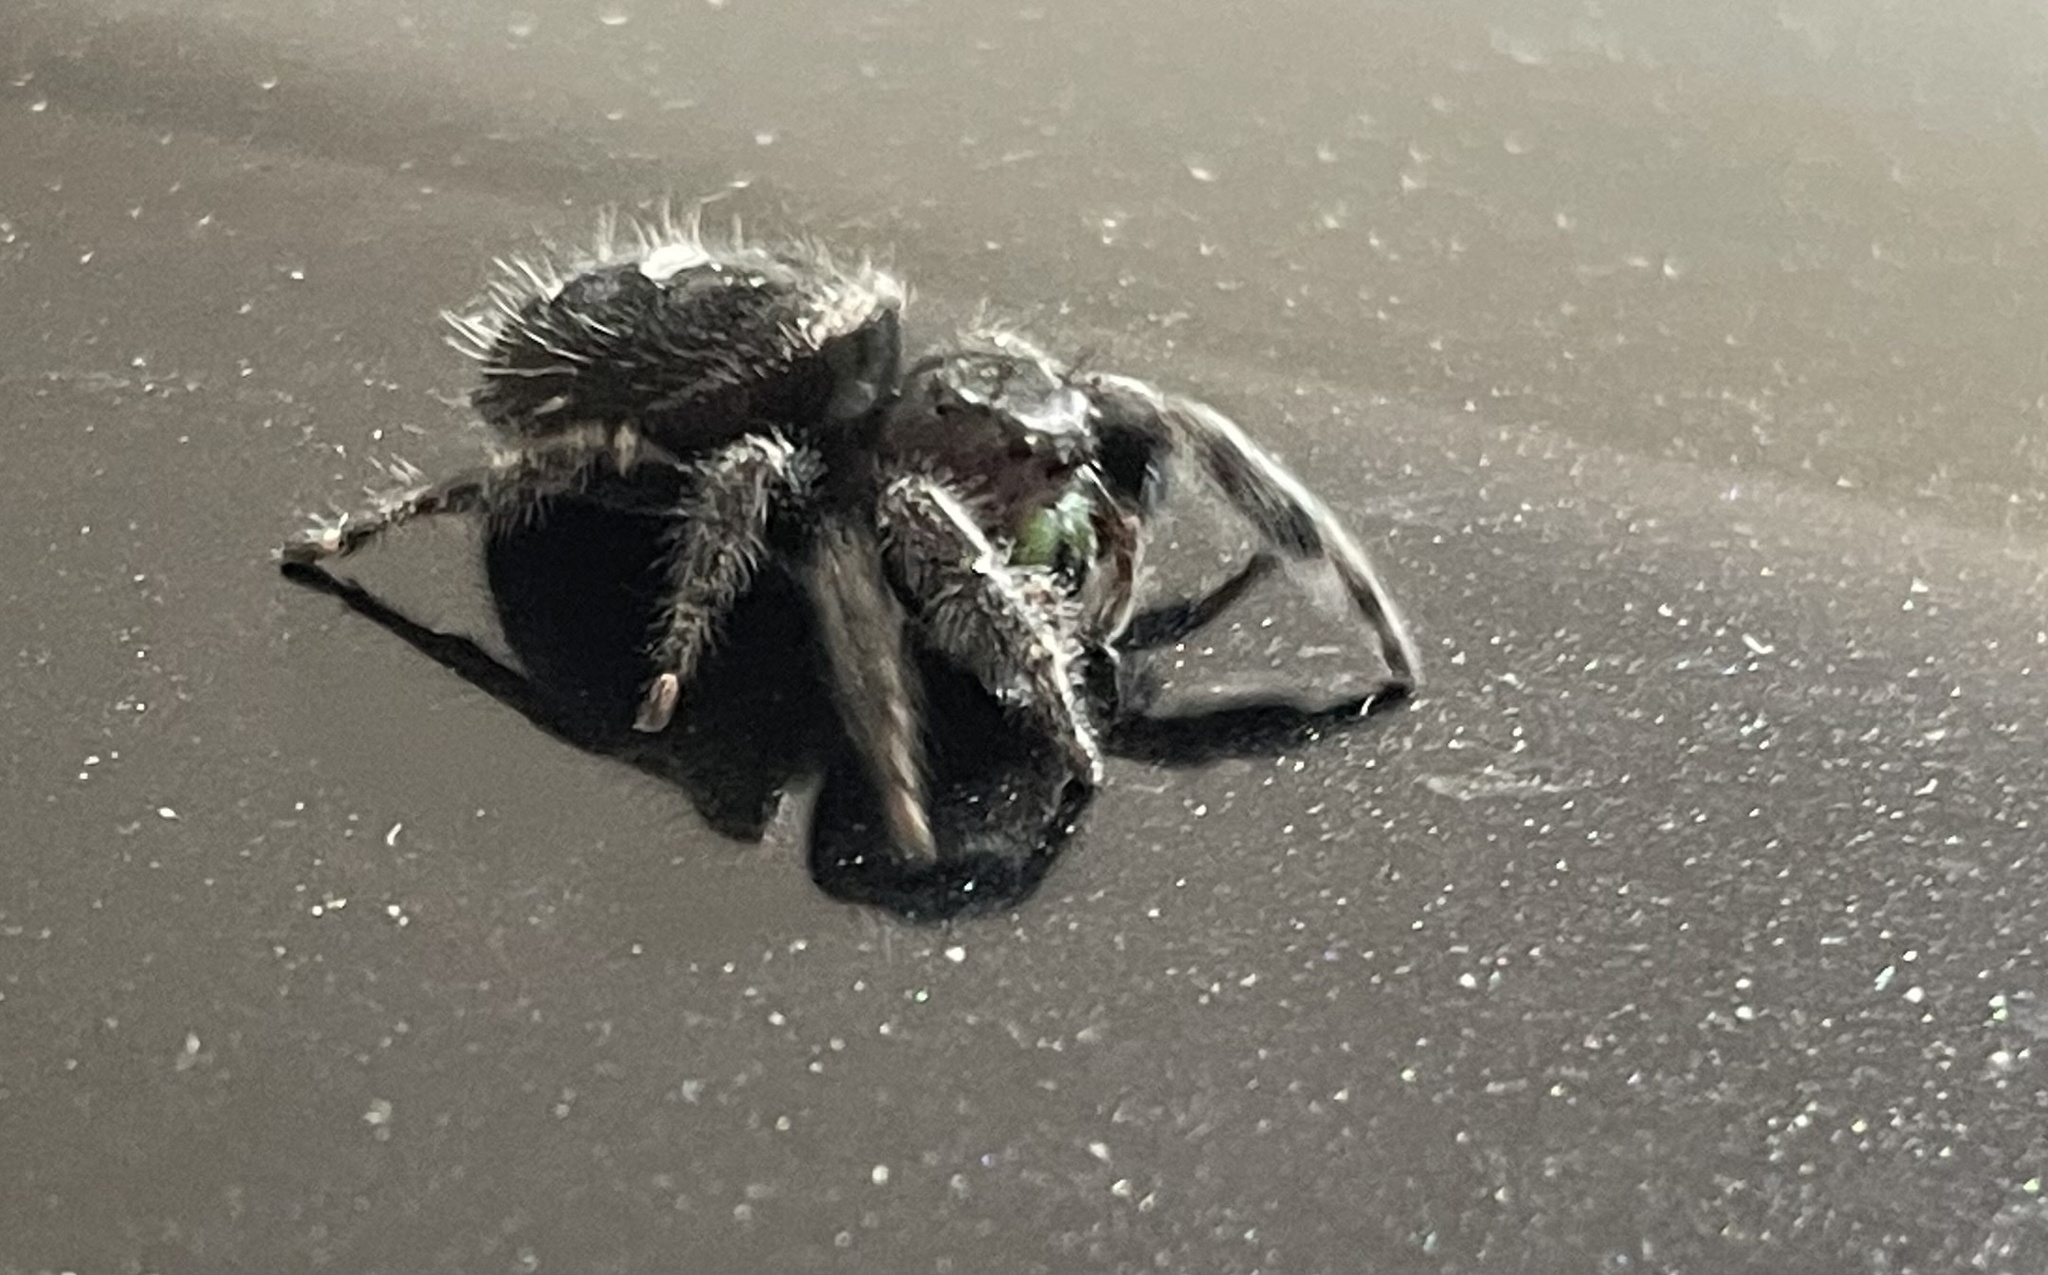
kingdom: Animalia
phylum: Arthropoda
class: Arachnida
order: Araneae
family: Salticidae
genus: Phidippus
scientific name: Phidippus audax
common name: Bold jumper
